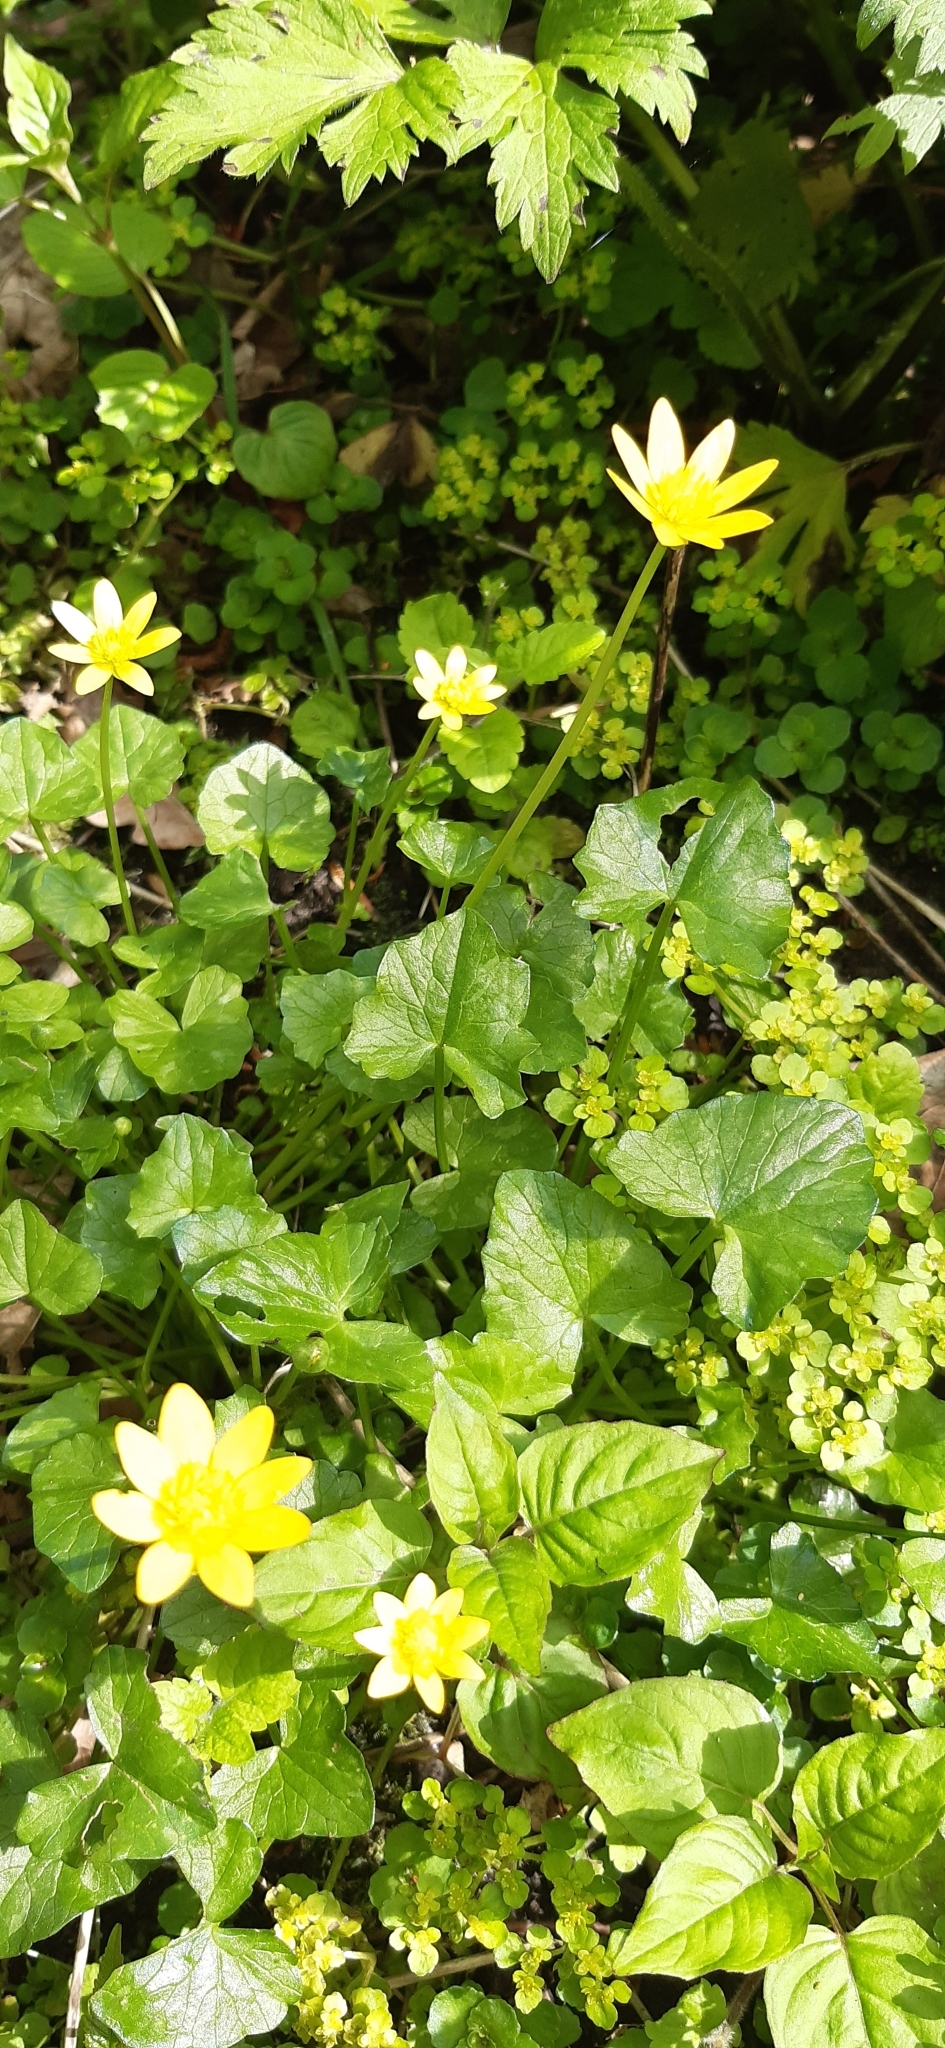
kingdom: Plantae
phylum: Tracheophyta
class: Magnoliopsida
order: Ranunculales
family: Ranunculaceae
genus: Ficaria
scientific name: Ficaria verna
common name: Lesser celandine
